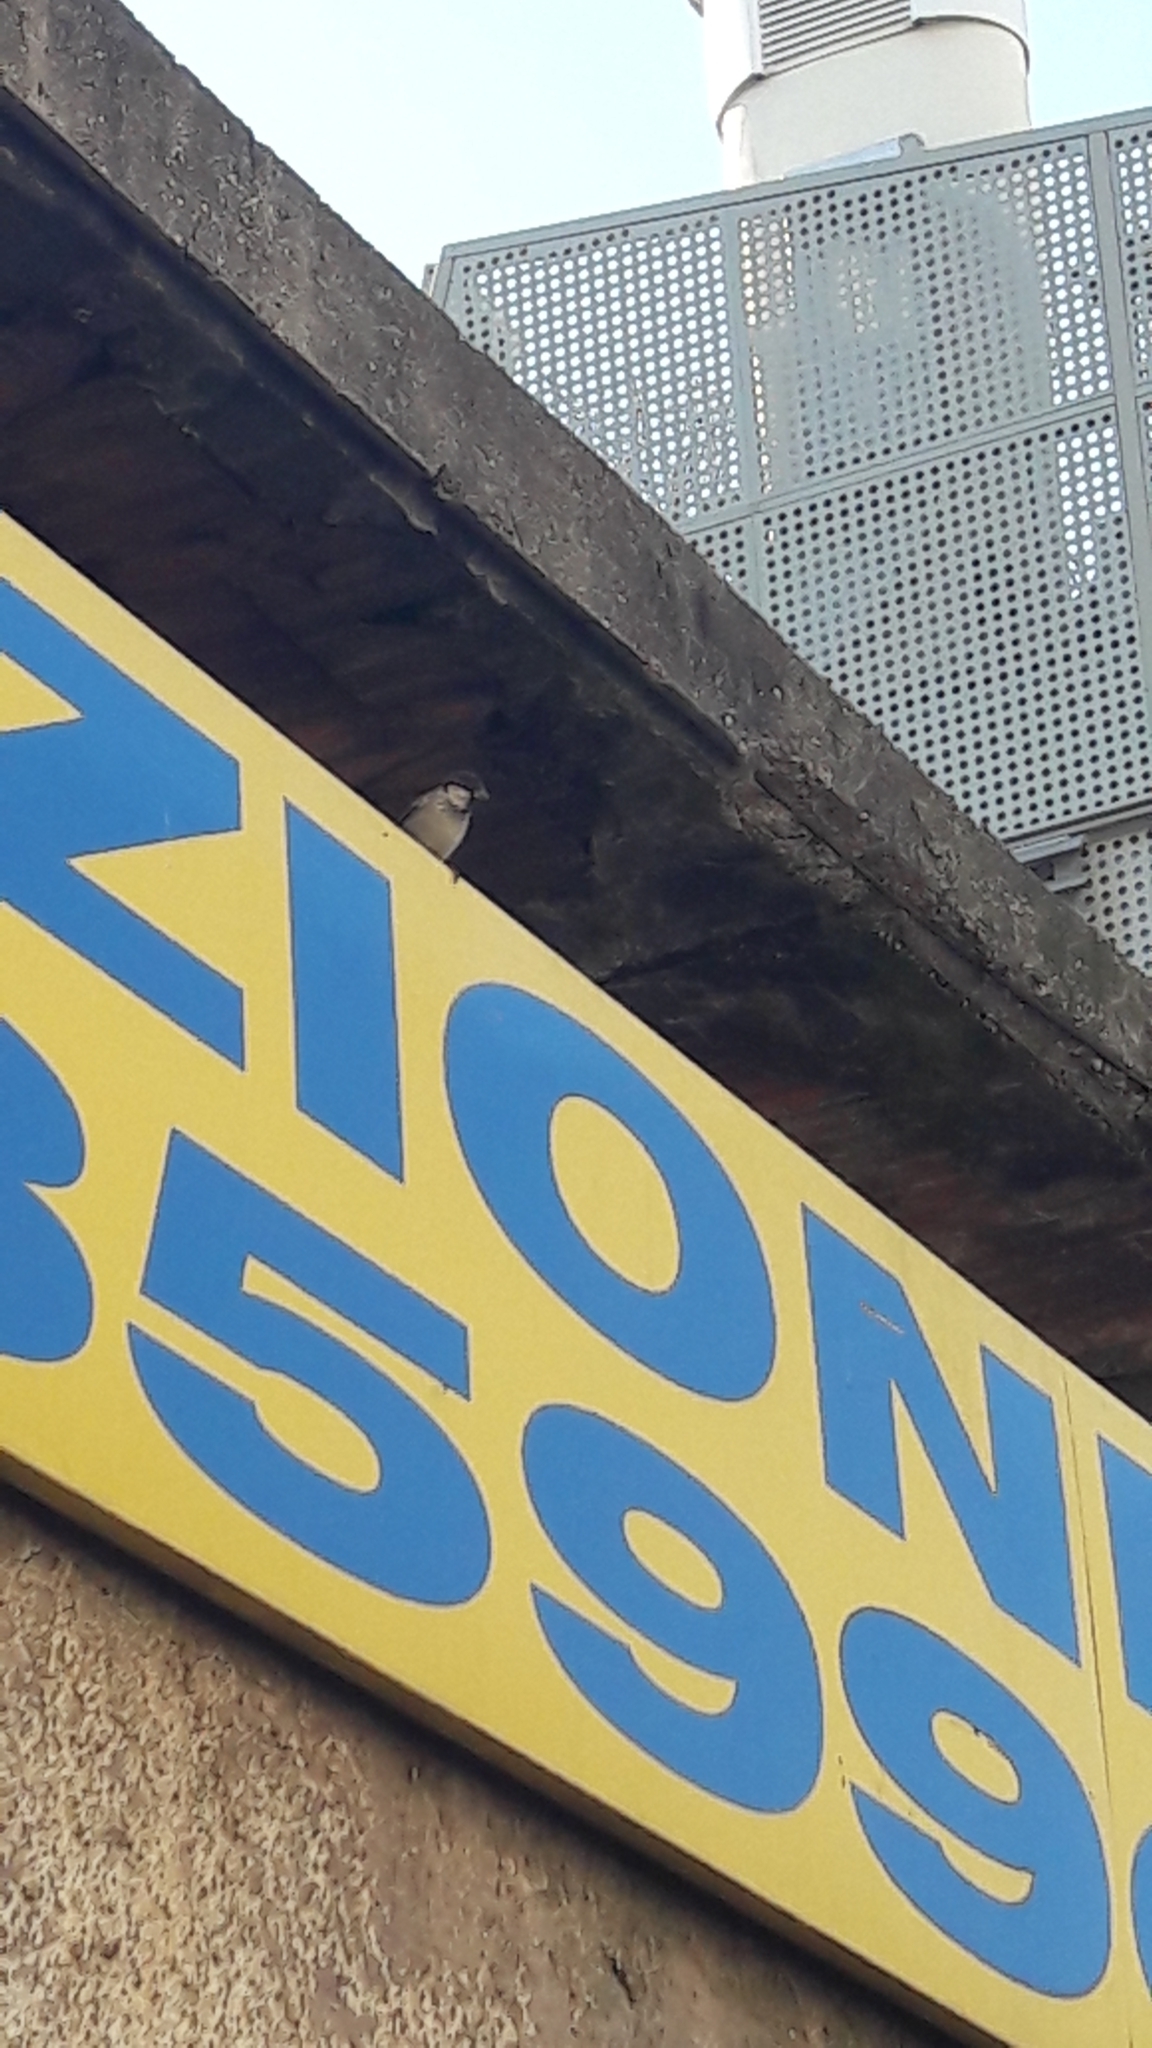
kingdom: Animalia
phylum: Chordata
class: Aves
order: Passeriformes
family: Passeridae
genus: Passer
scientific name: Passer italiae
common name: Italian sparrow
